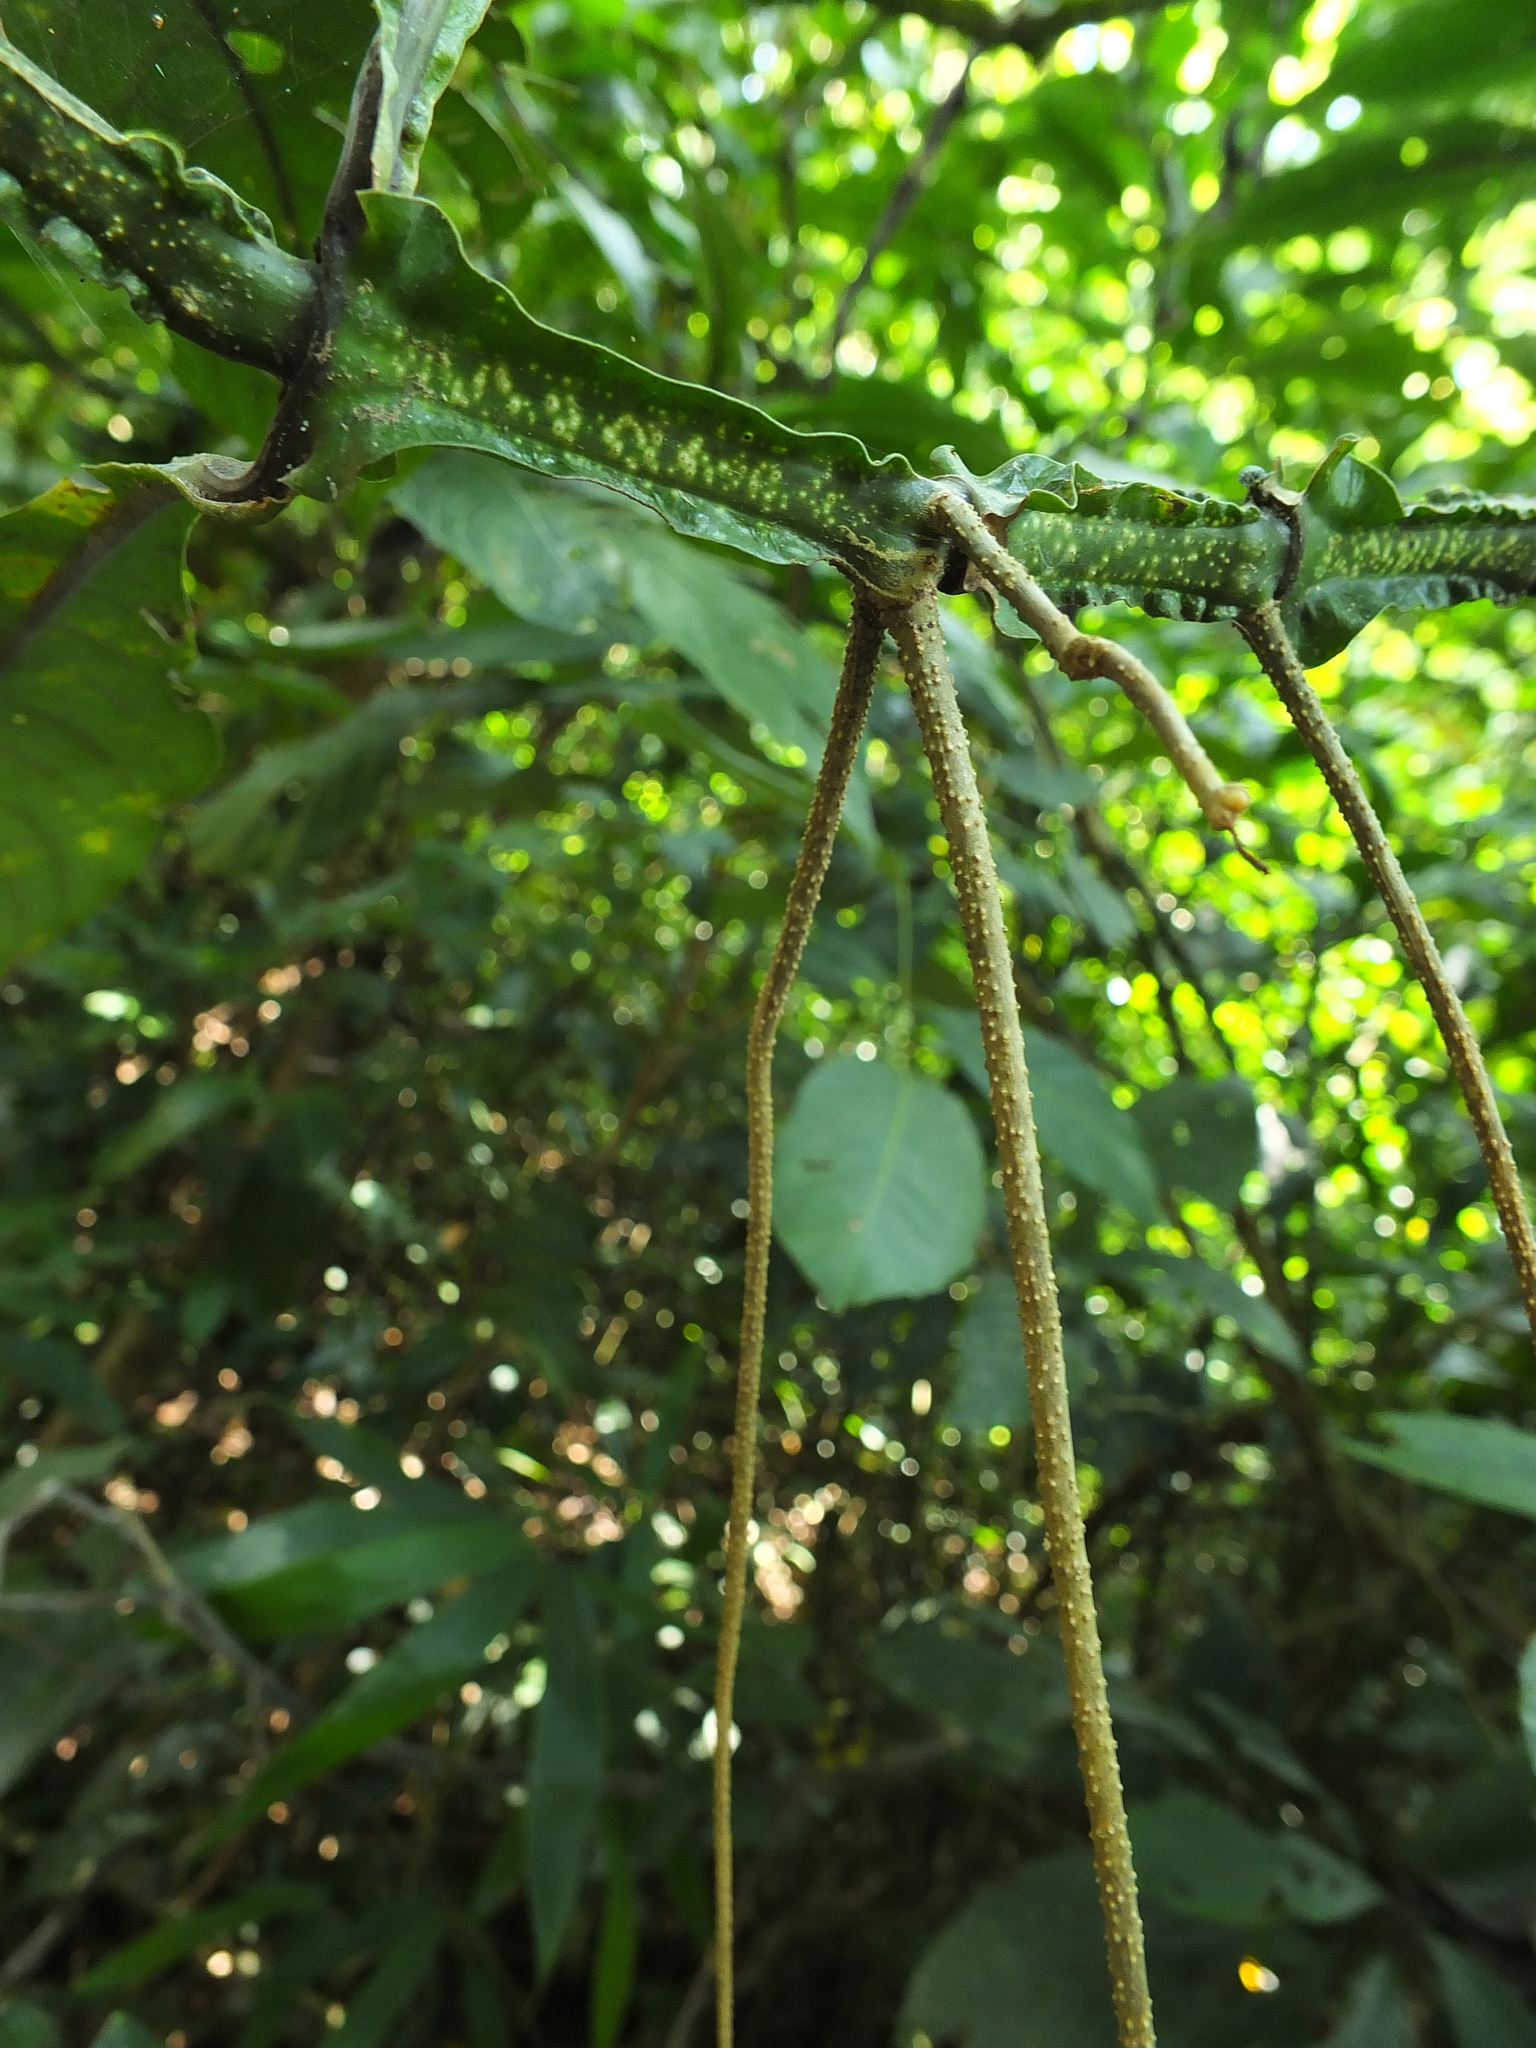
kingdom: Plantae
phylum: Tracheophyta
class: Magnoliopsida
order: Lamiales
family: Acanthaceae
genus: Strobilanthes
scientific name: Strobilanthes barbata
